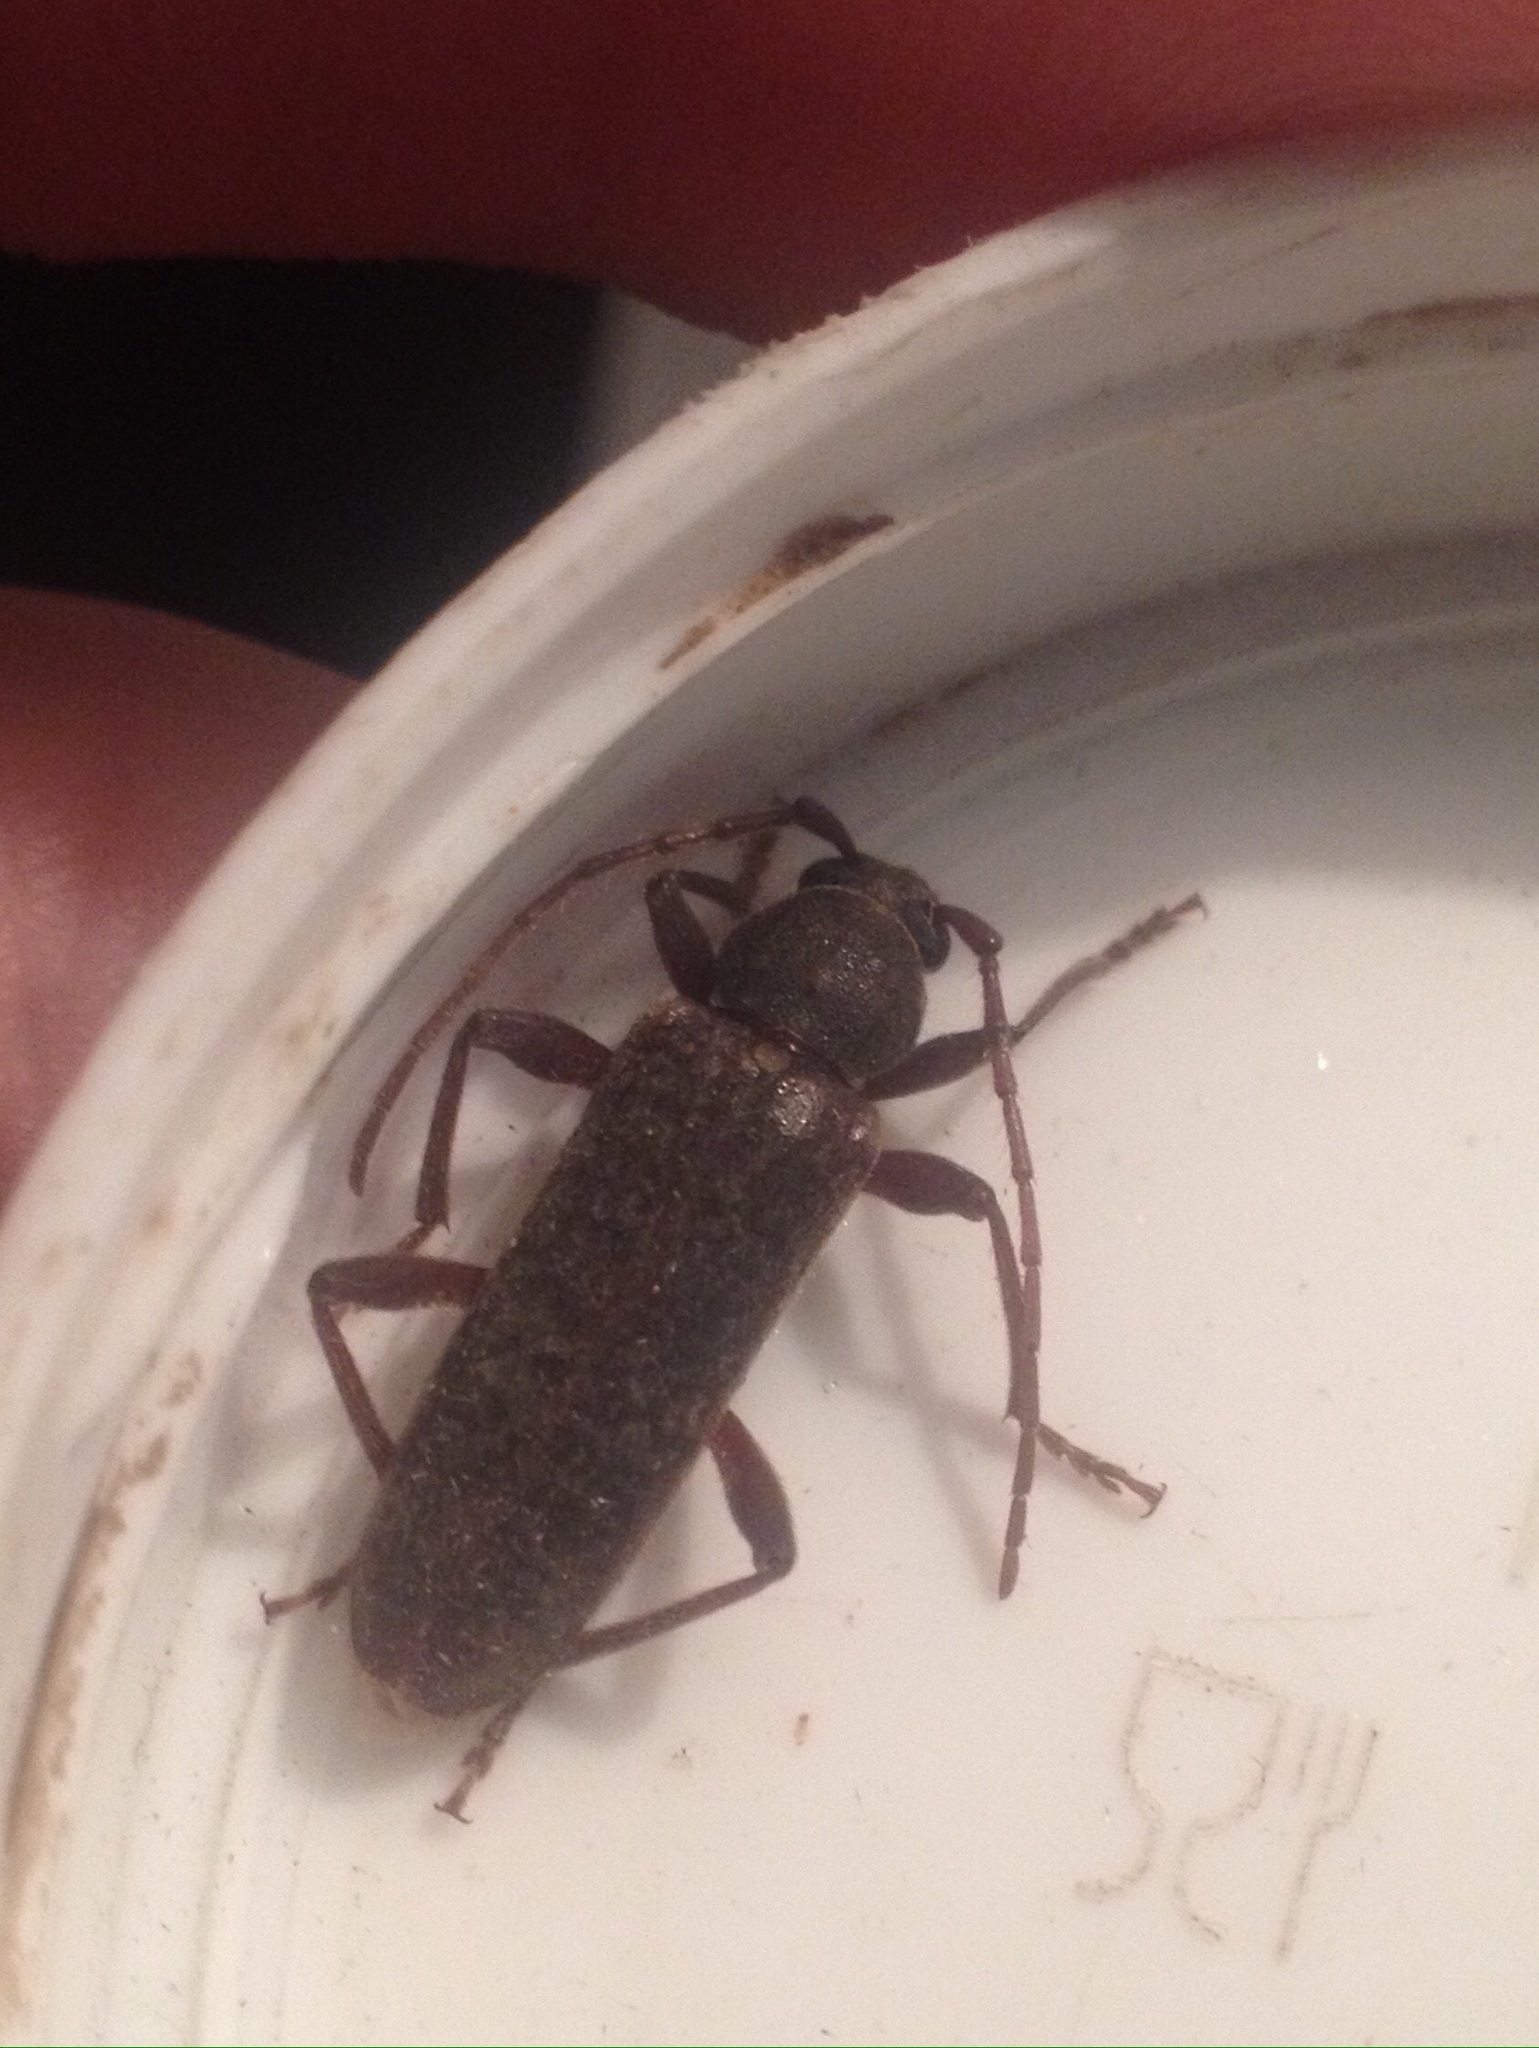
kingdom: Animalia
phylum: Arthropoda
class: Insecta
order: Coleoptera
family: Cerambycidae
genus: Trichoferus
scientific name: Trichoferus campestris
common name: Velvet long horned beetle
